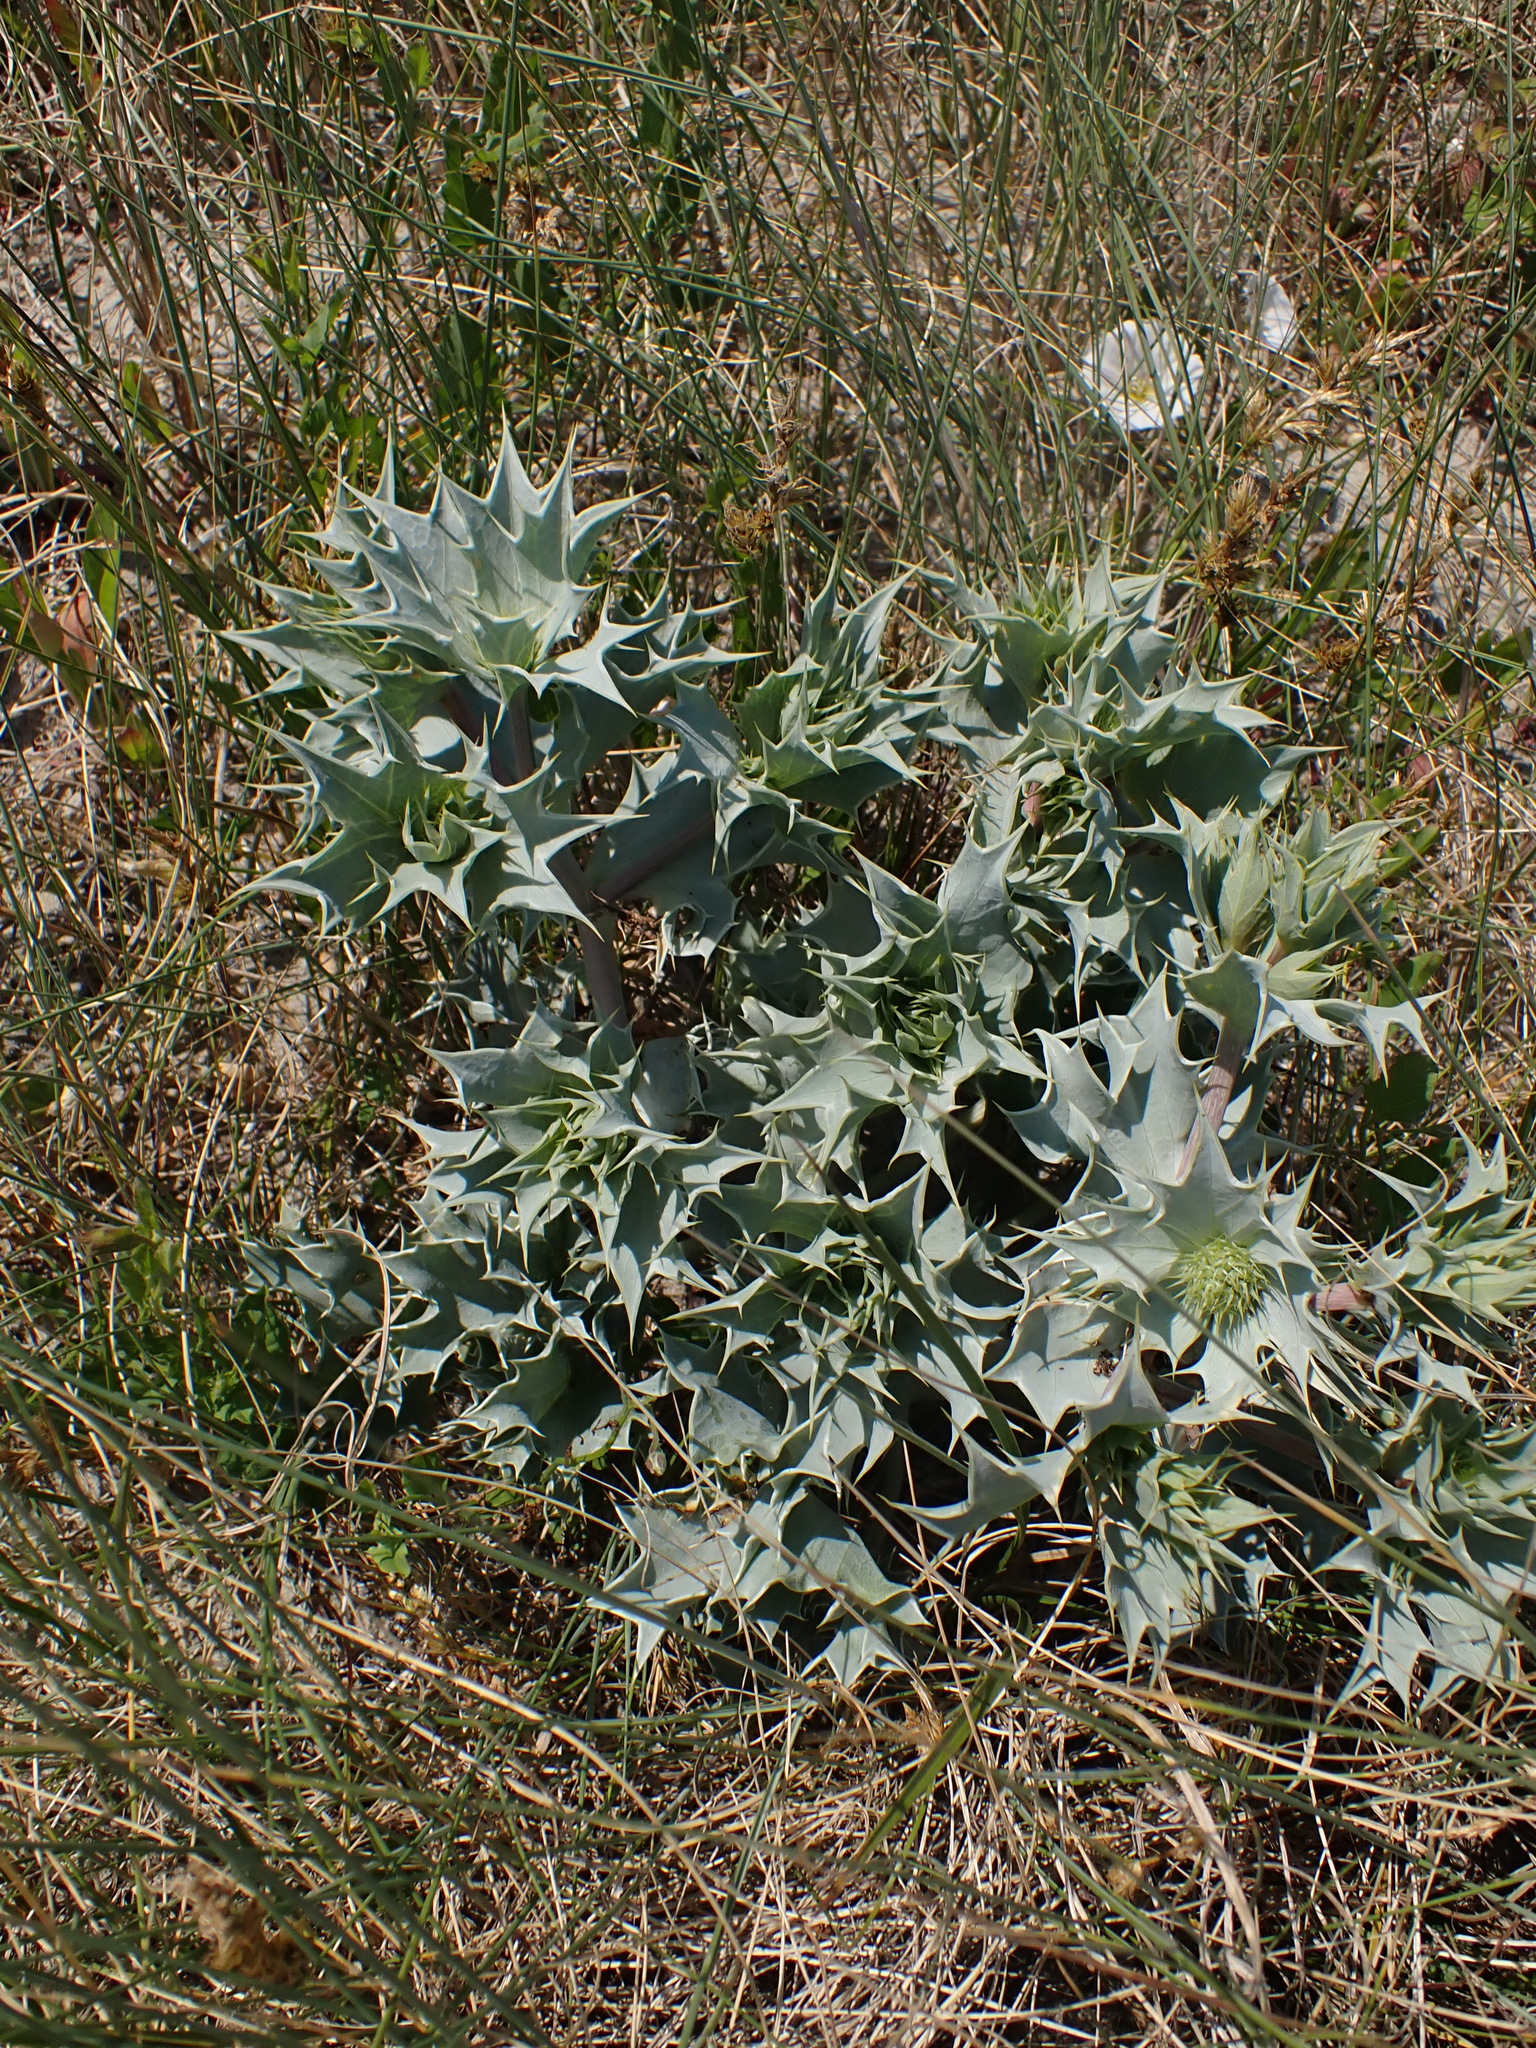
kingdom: Plantae
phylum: Tracheophyta
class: Magnoliopsida
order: Apiales
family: Apiaceae
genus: Eryngium
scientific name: Eryngium maritimum
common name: Sea-holly
